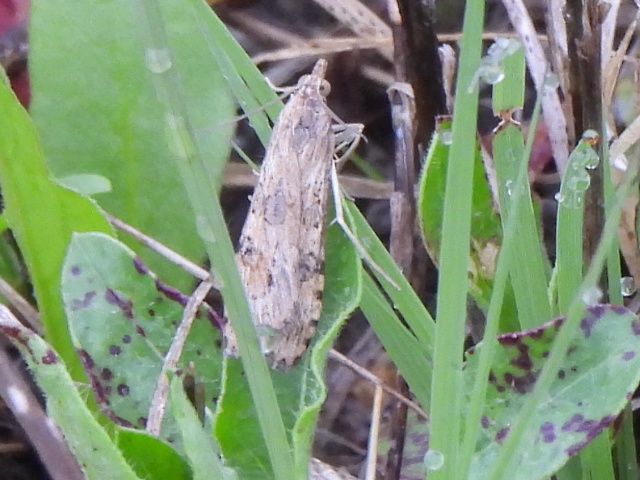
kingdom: Animalia
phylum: Arthropoda
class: Insecta
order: Lepidoptera
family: Crambidae
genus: Nomophila
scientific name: Nomophila nearctica
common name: American rush veneer
